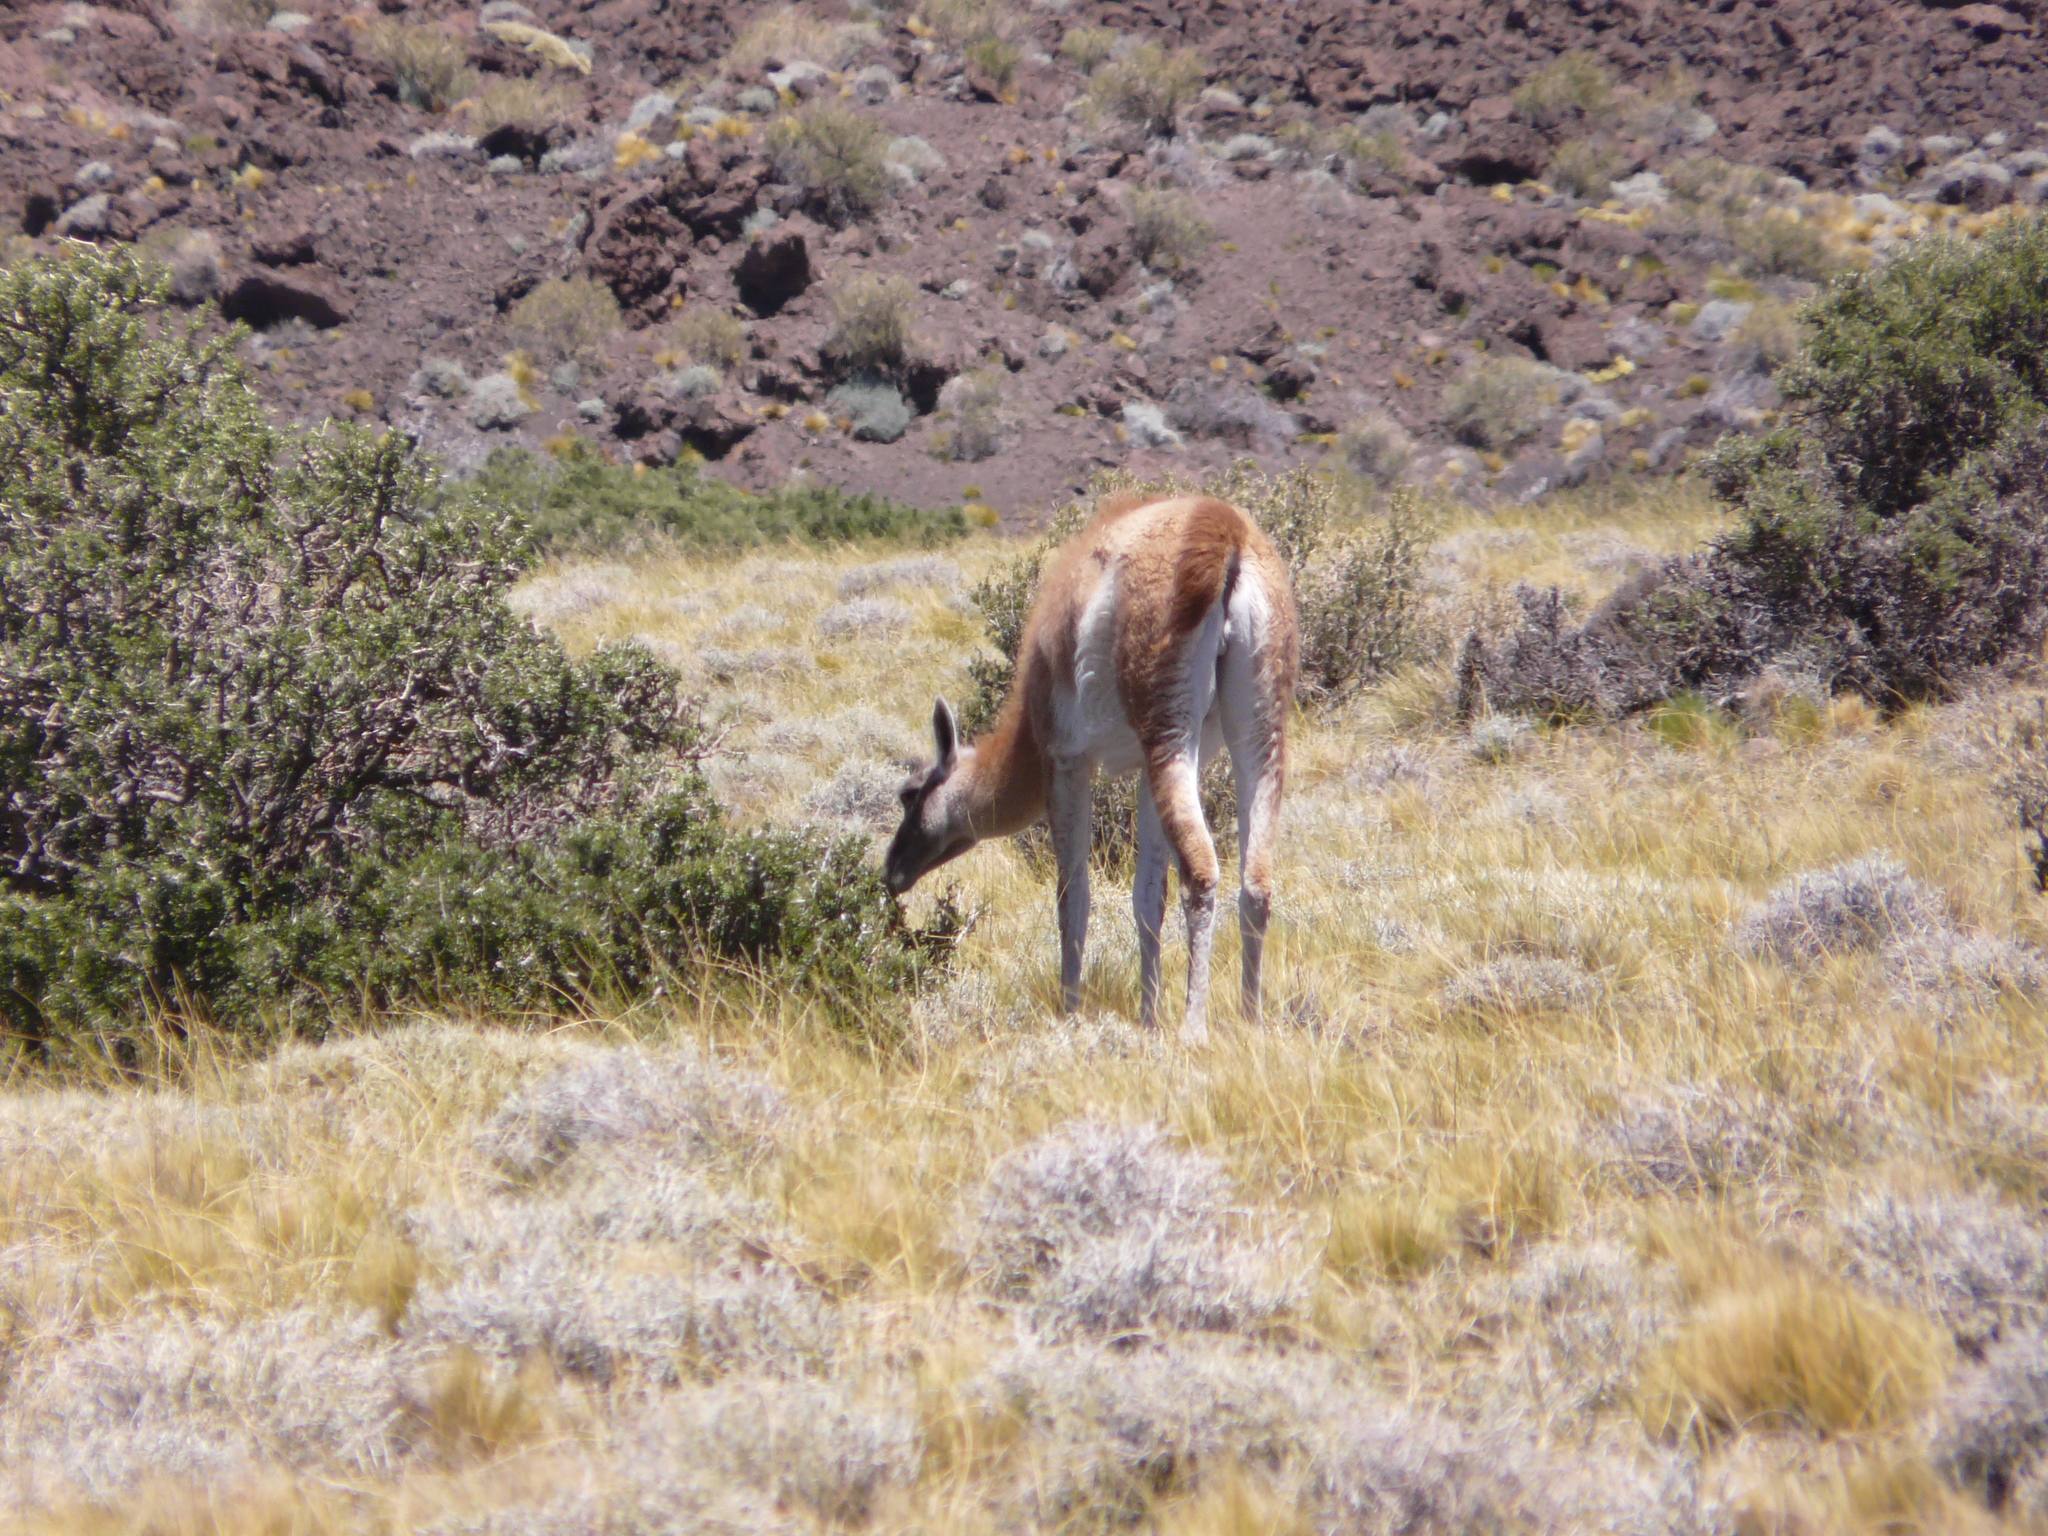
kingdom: Animalia
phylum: Chordata
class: Mammalia
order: Artiodactyla
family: Camelidae
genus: Lama
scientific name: Lama glama
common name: Llama
